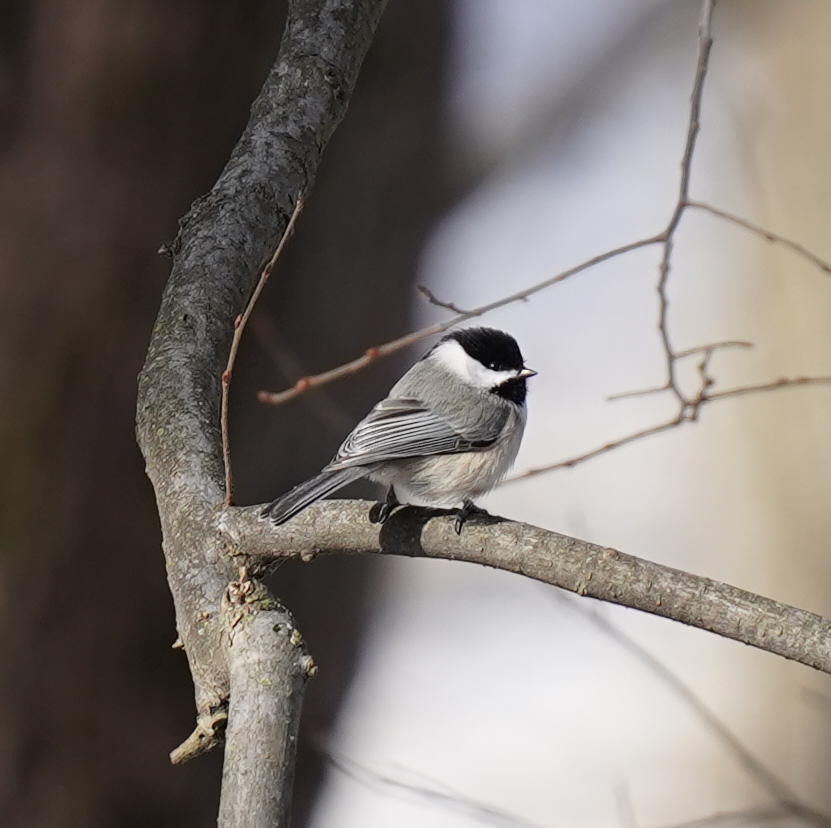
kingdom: Animalia
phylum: Chordata
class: Aves
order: Passeriformes
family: Paridae
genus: Poecile
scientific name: Poecile carolinensis
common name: Carolina chickadee
